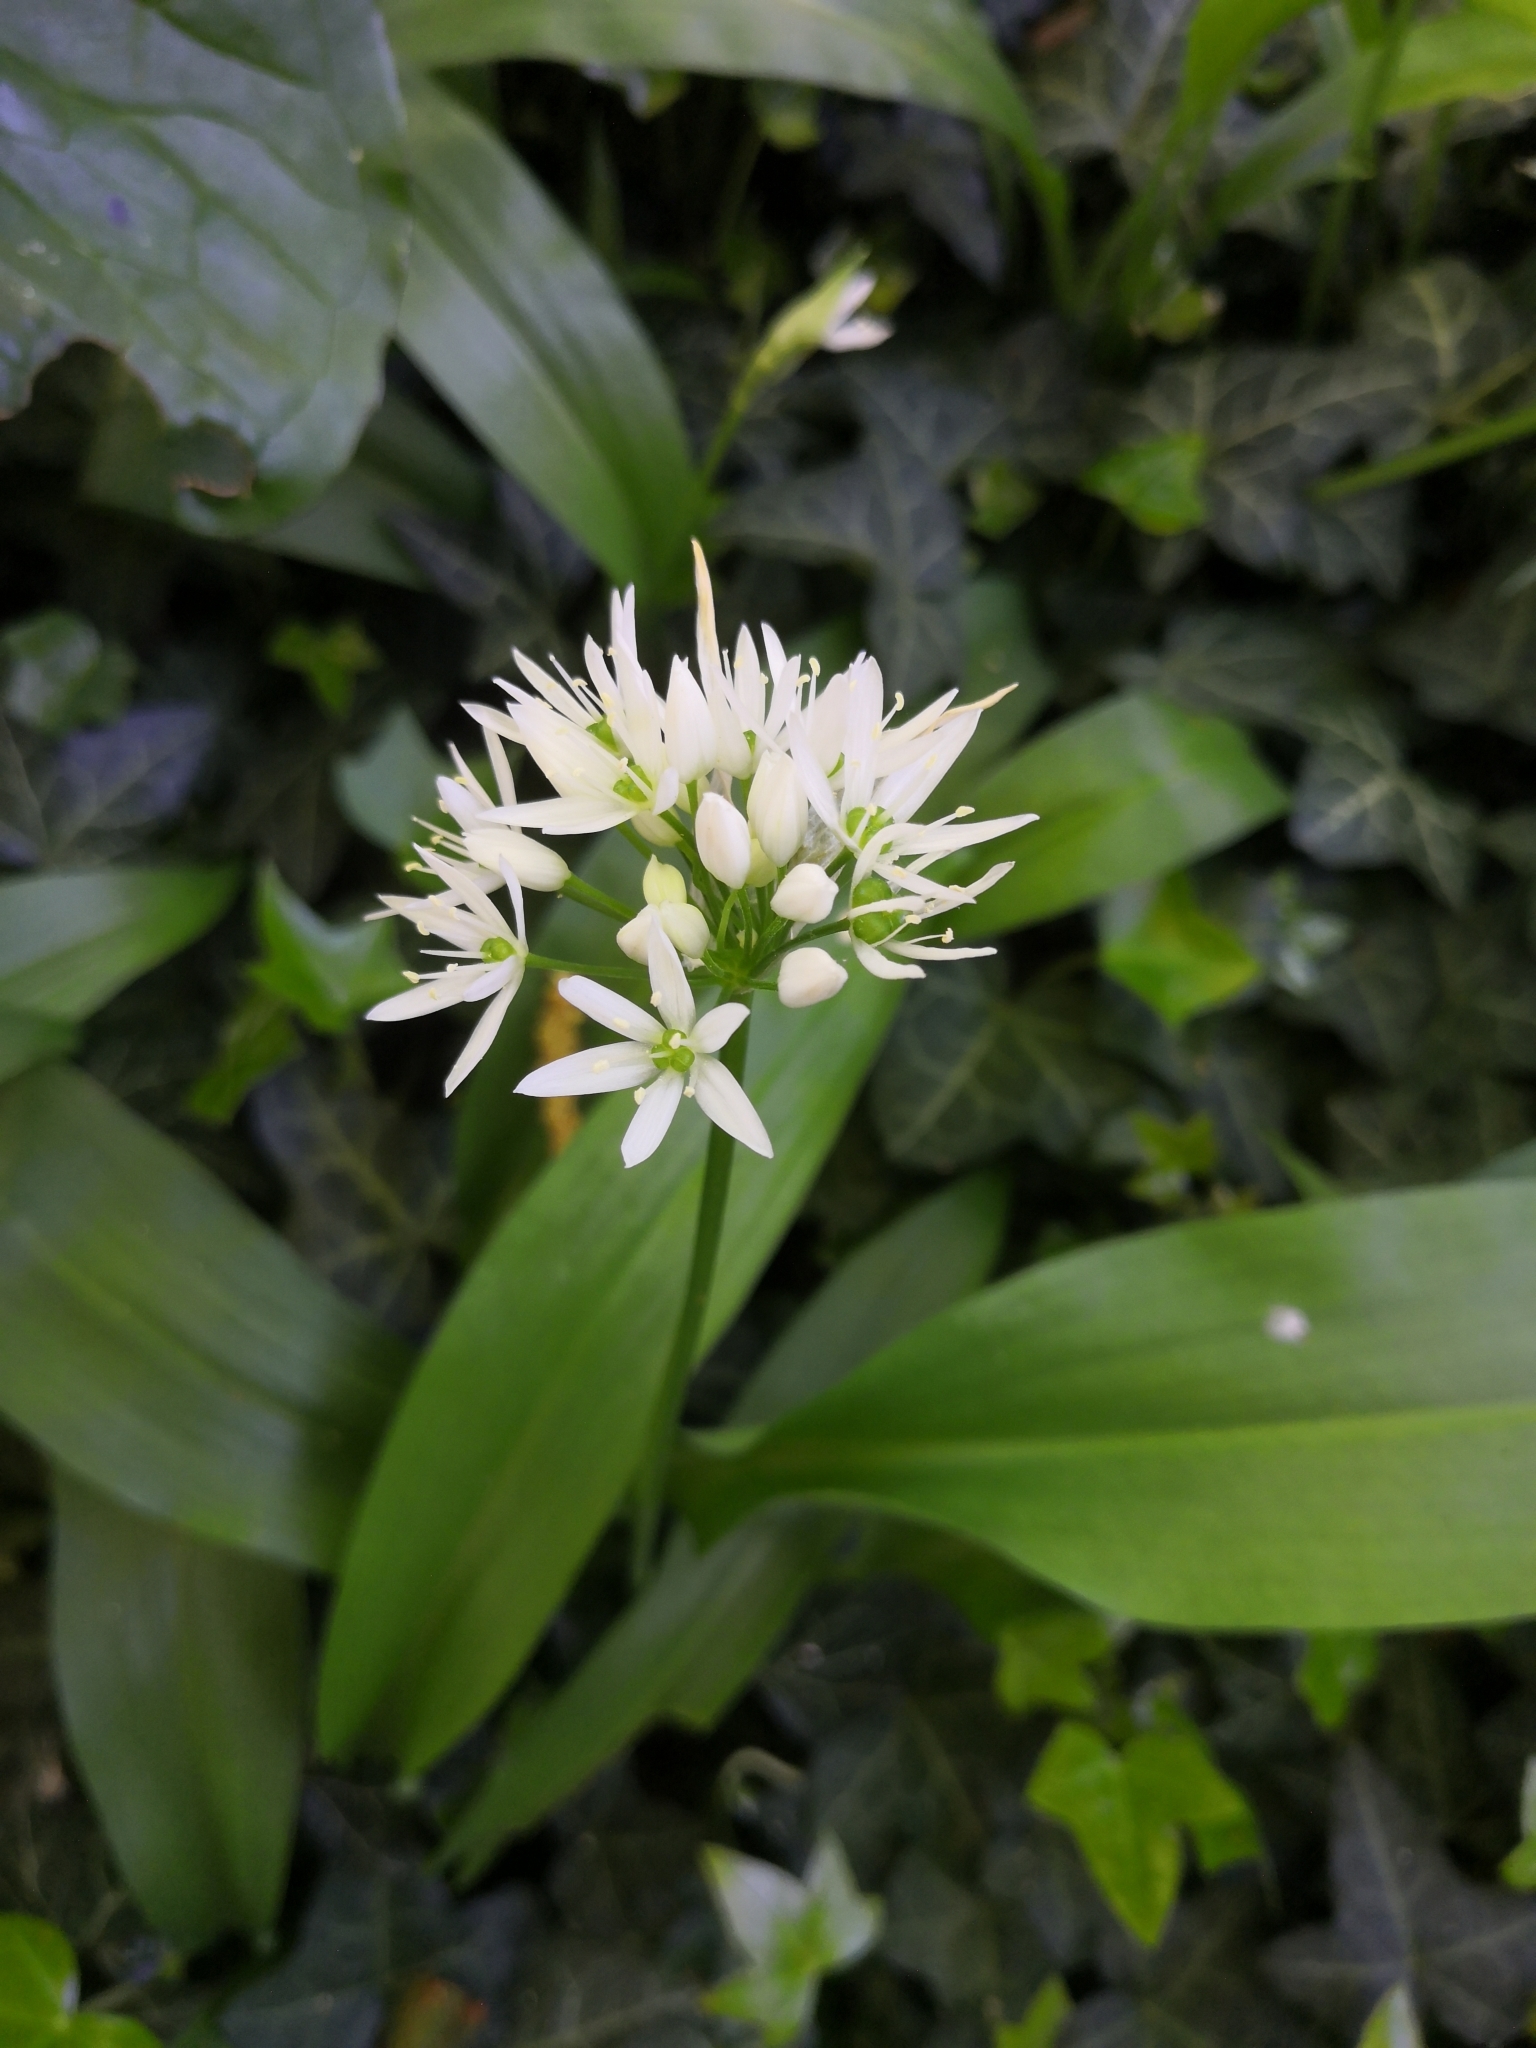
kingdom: Plantae
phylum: Tracheophyta
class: Liliopsida
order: Asparagales
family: Amaryllidaceae
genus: Allium
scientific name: Allium ursinum
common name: Ramsons
